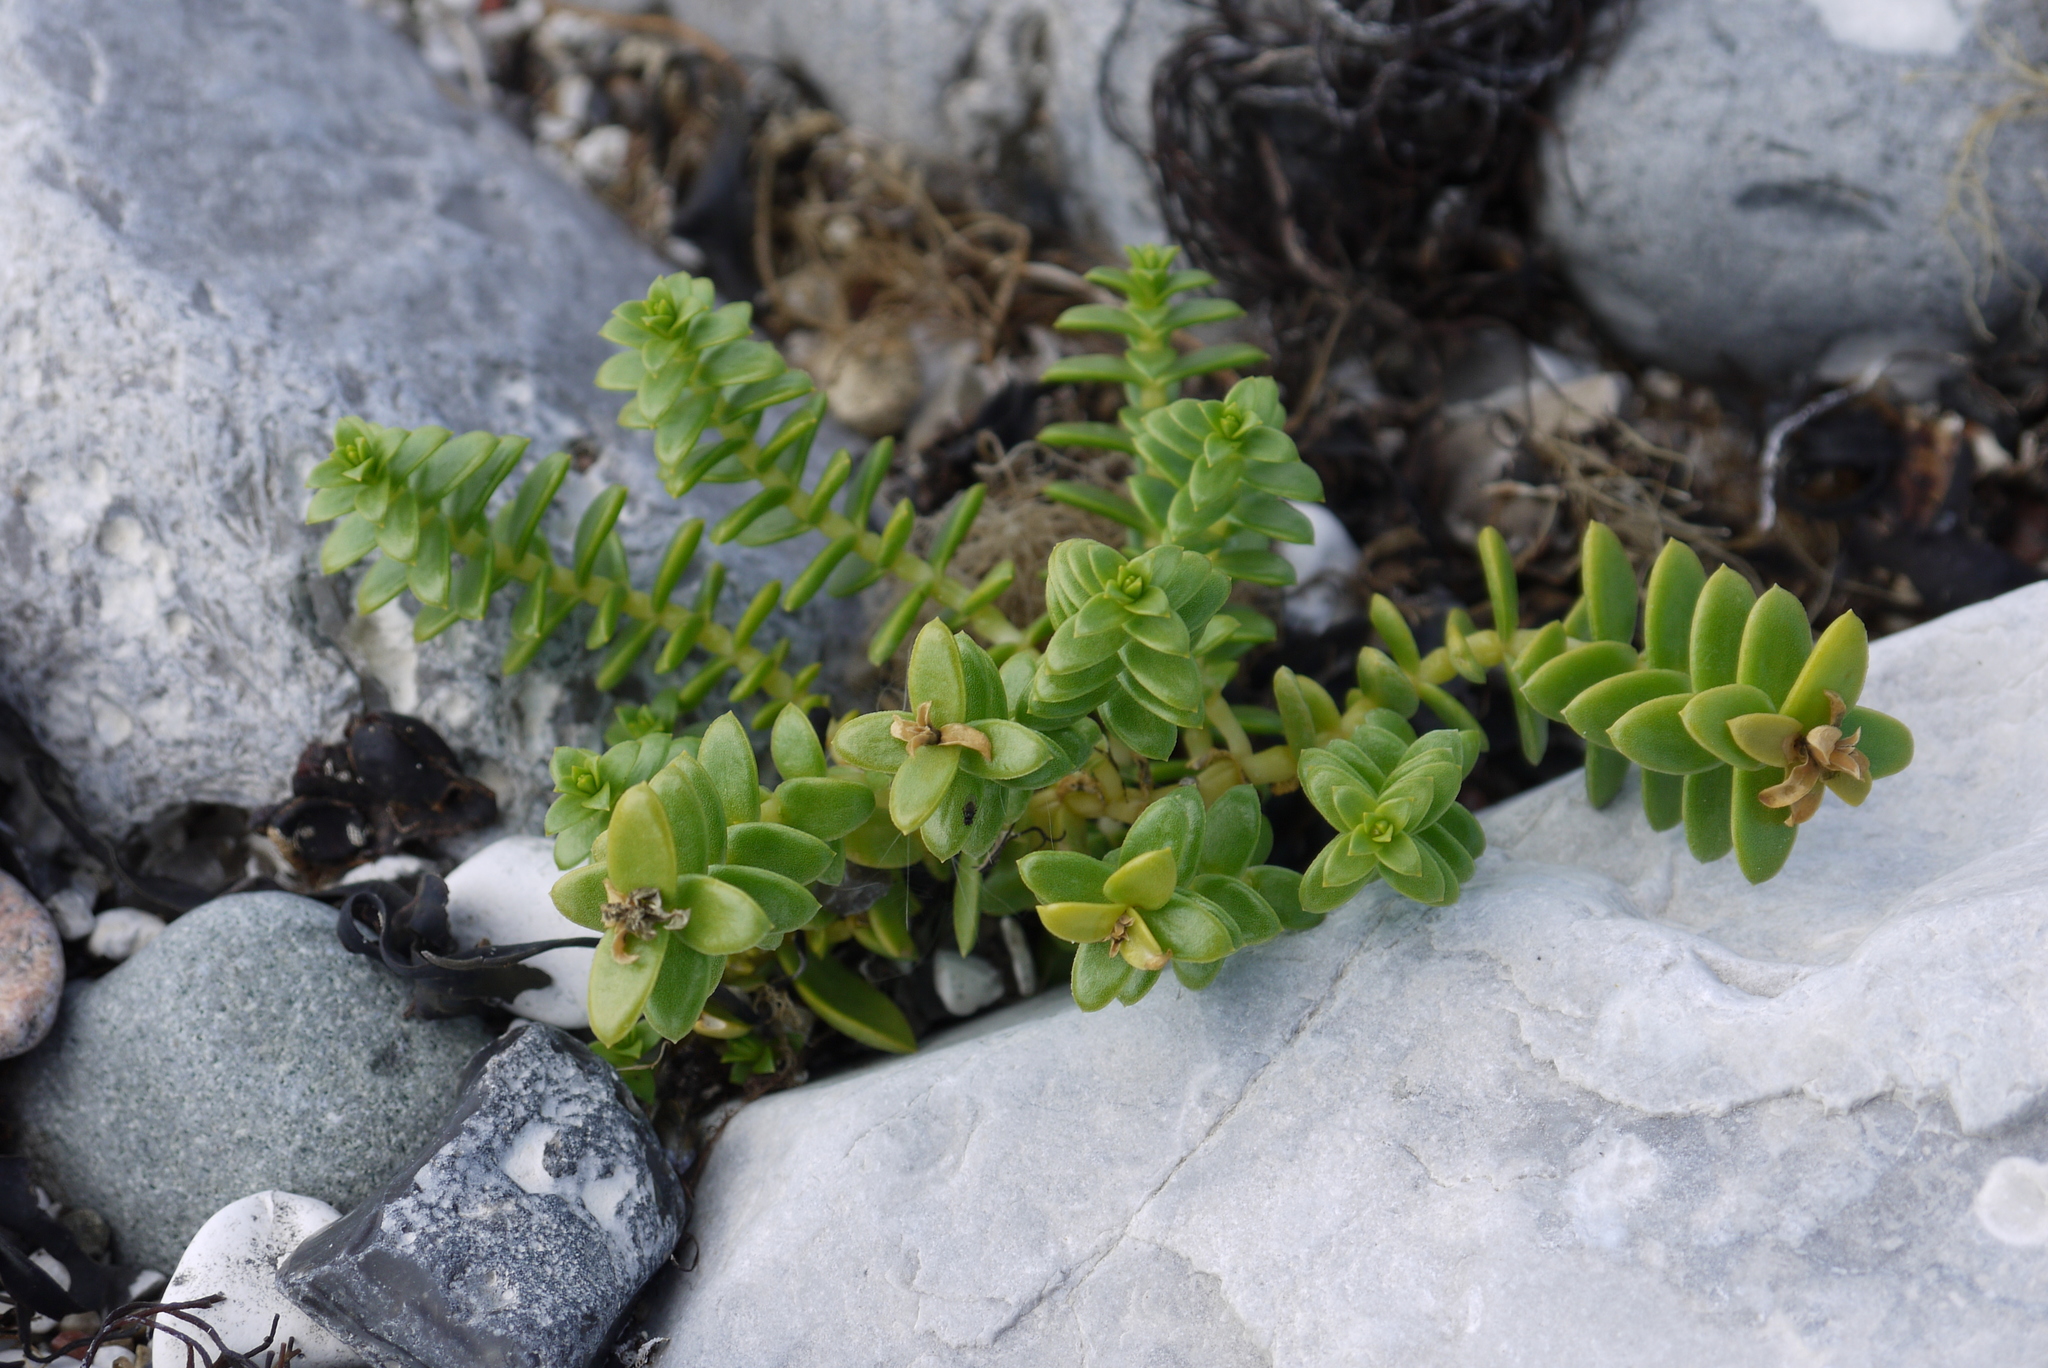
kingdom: Plantae
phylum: Tracheophyta
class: Magnoliopsida
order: Caryophyllales
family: Caryophyllaceae
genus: Honckenya
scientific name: Honckenya peploides
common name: Sea sandwort
